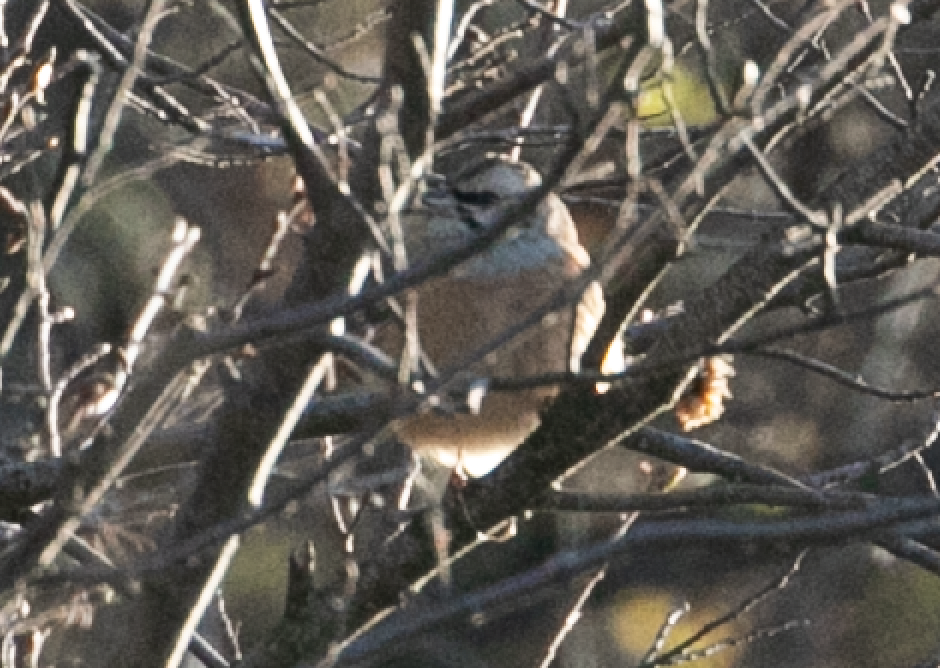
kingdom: Animalia
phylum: Chordata
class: Aves
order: Passeriformes
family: Emberizidae
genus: Emberiza
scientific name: Emberiza cia
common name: Rock bunting
